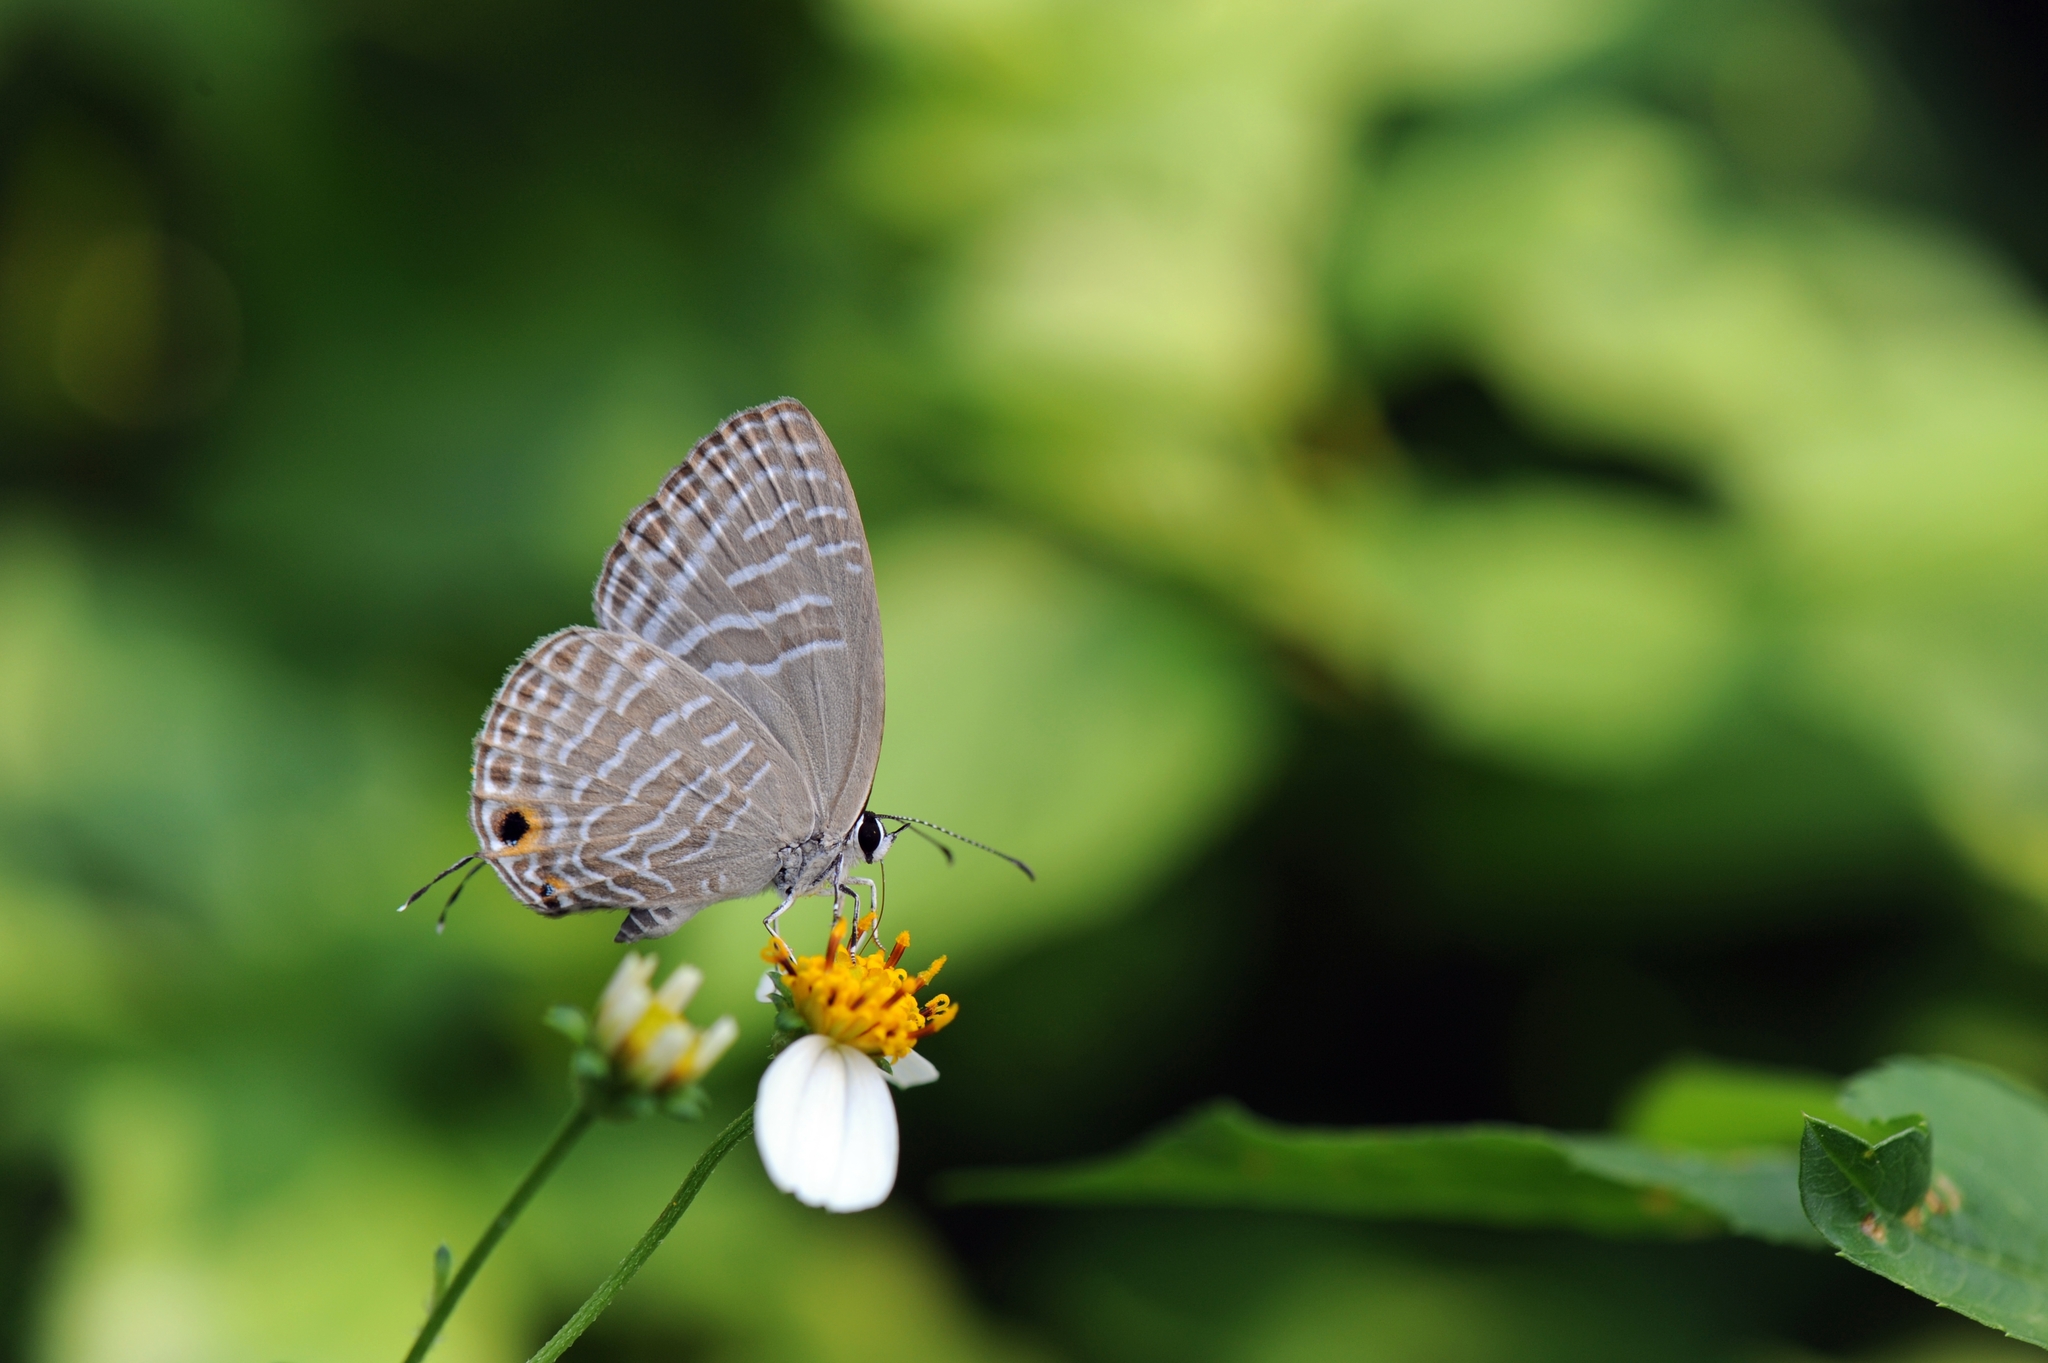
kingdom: Animalia
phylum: Arthropoda
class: Insecta
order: Lepidoptera
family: Lycaenidae
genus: Jamides
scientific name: Jamides alecto
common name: Metallic cerulean
